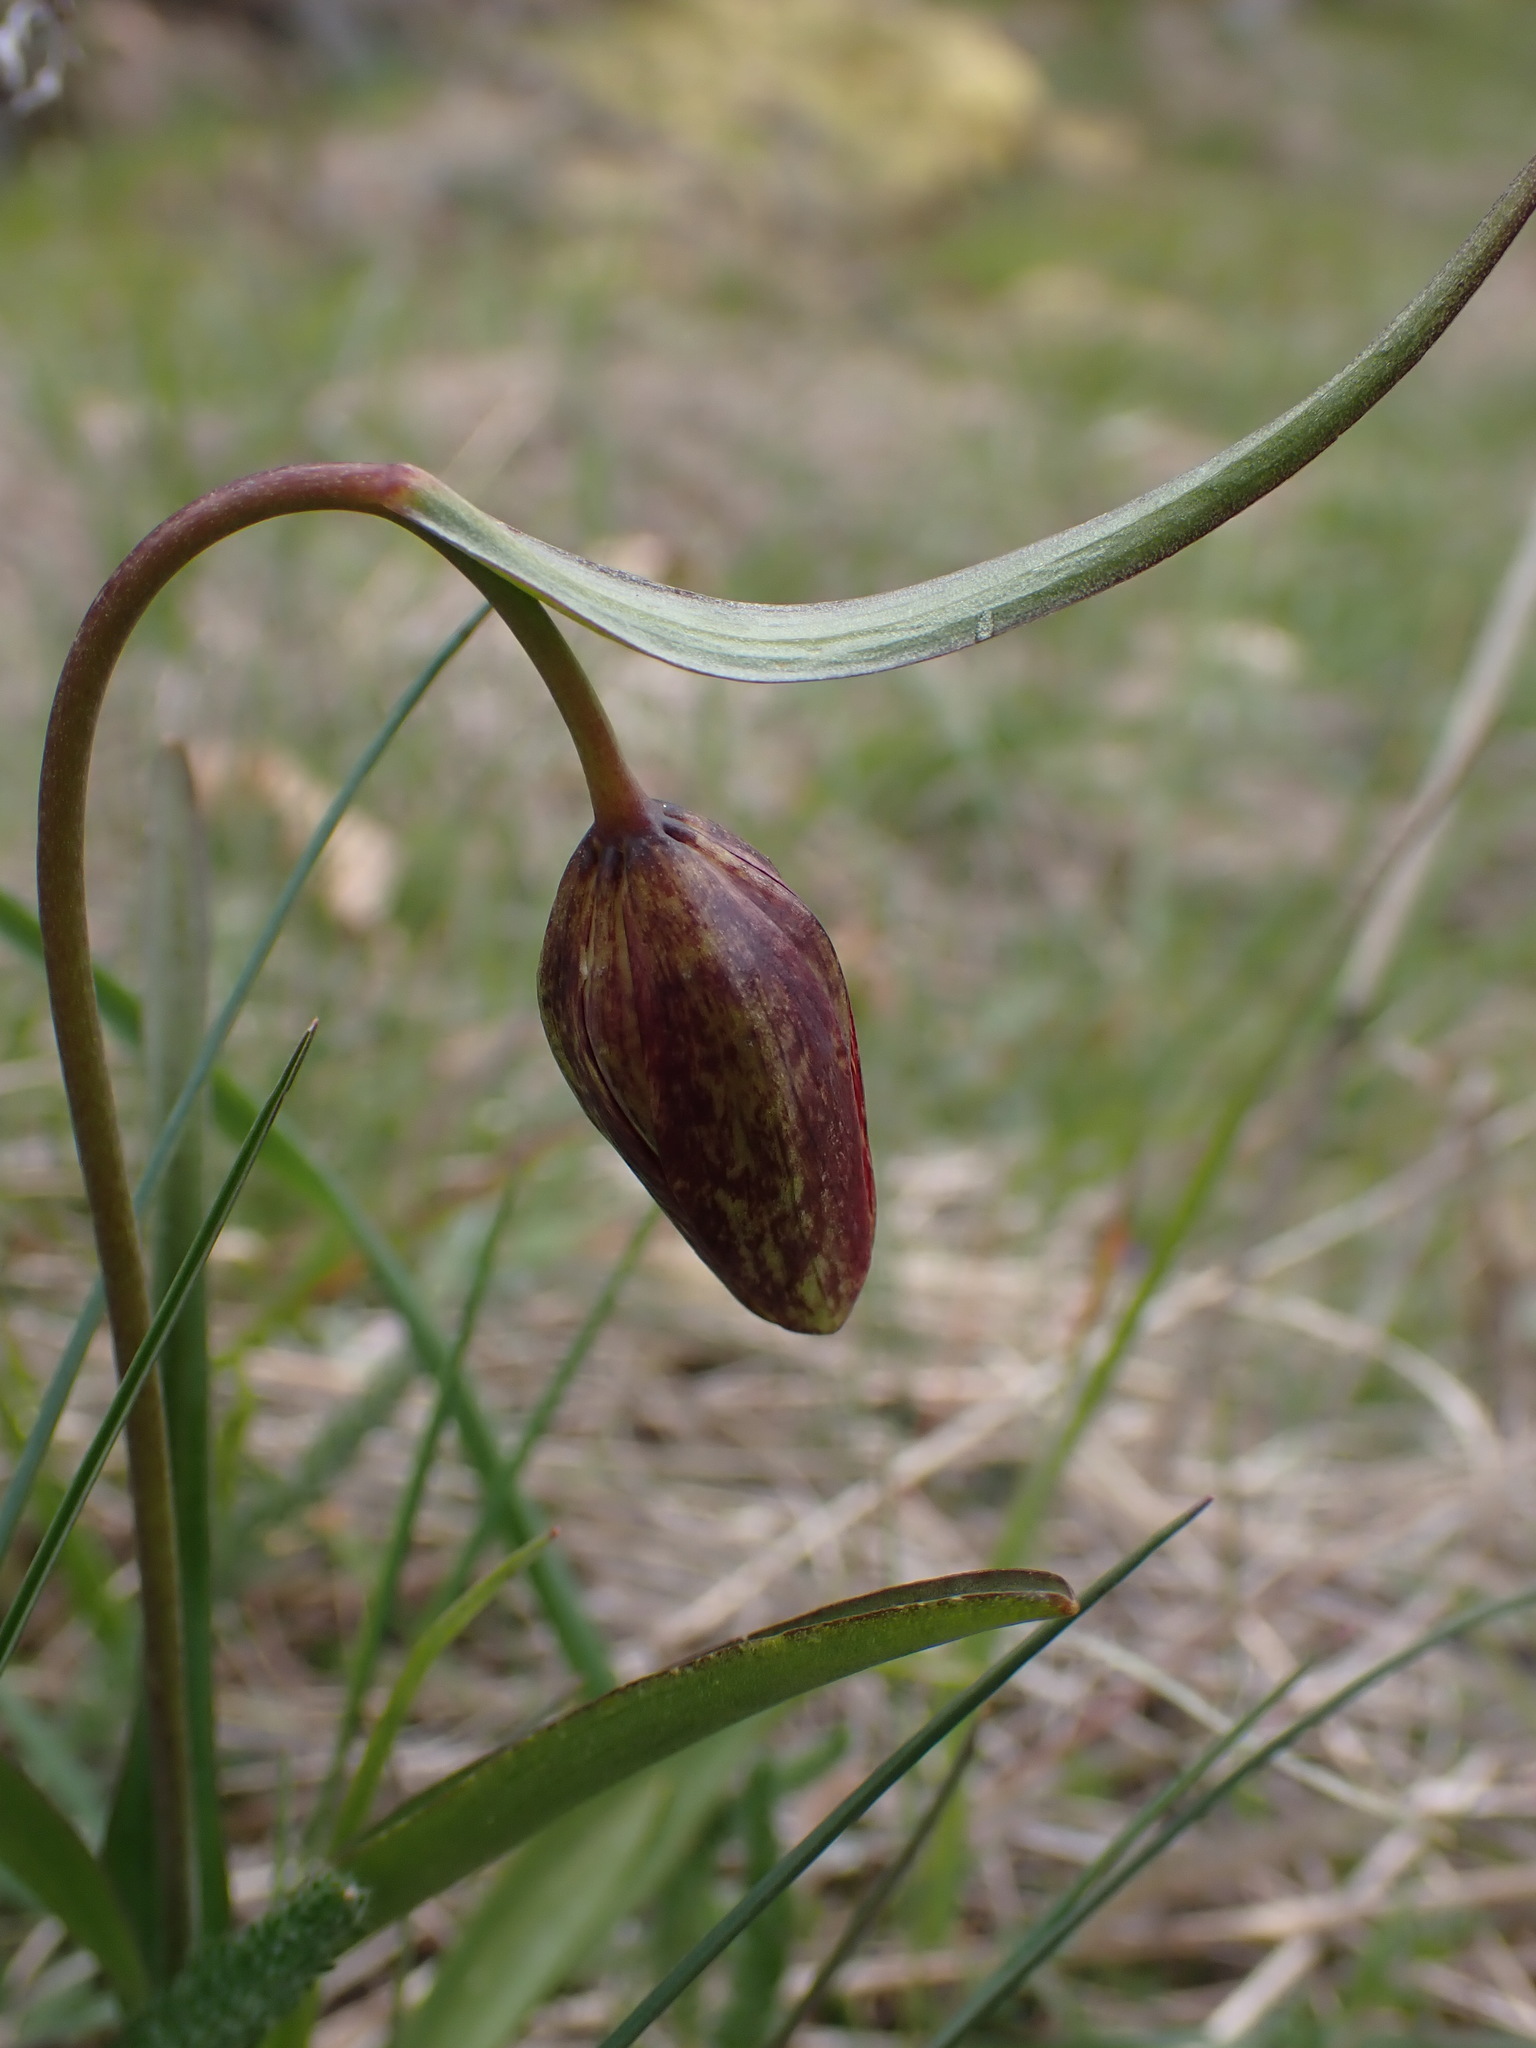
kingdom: Plantae
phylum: Tracheophyta
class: Liliopsida
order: Liliales
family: Liliaceae
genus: Fritillaria
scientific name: Fritillaria affinis
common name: Ojai fritillary
